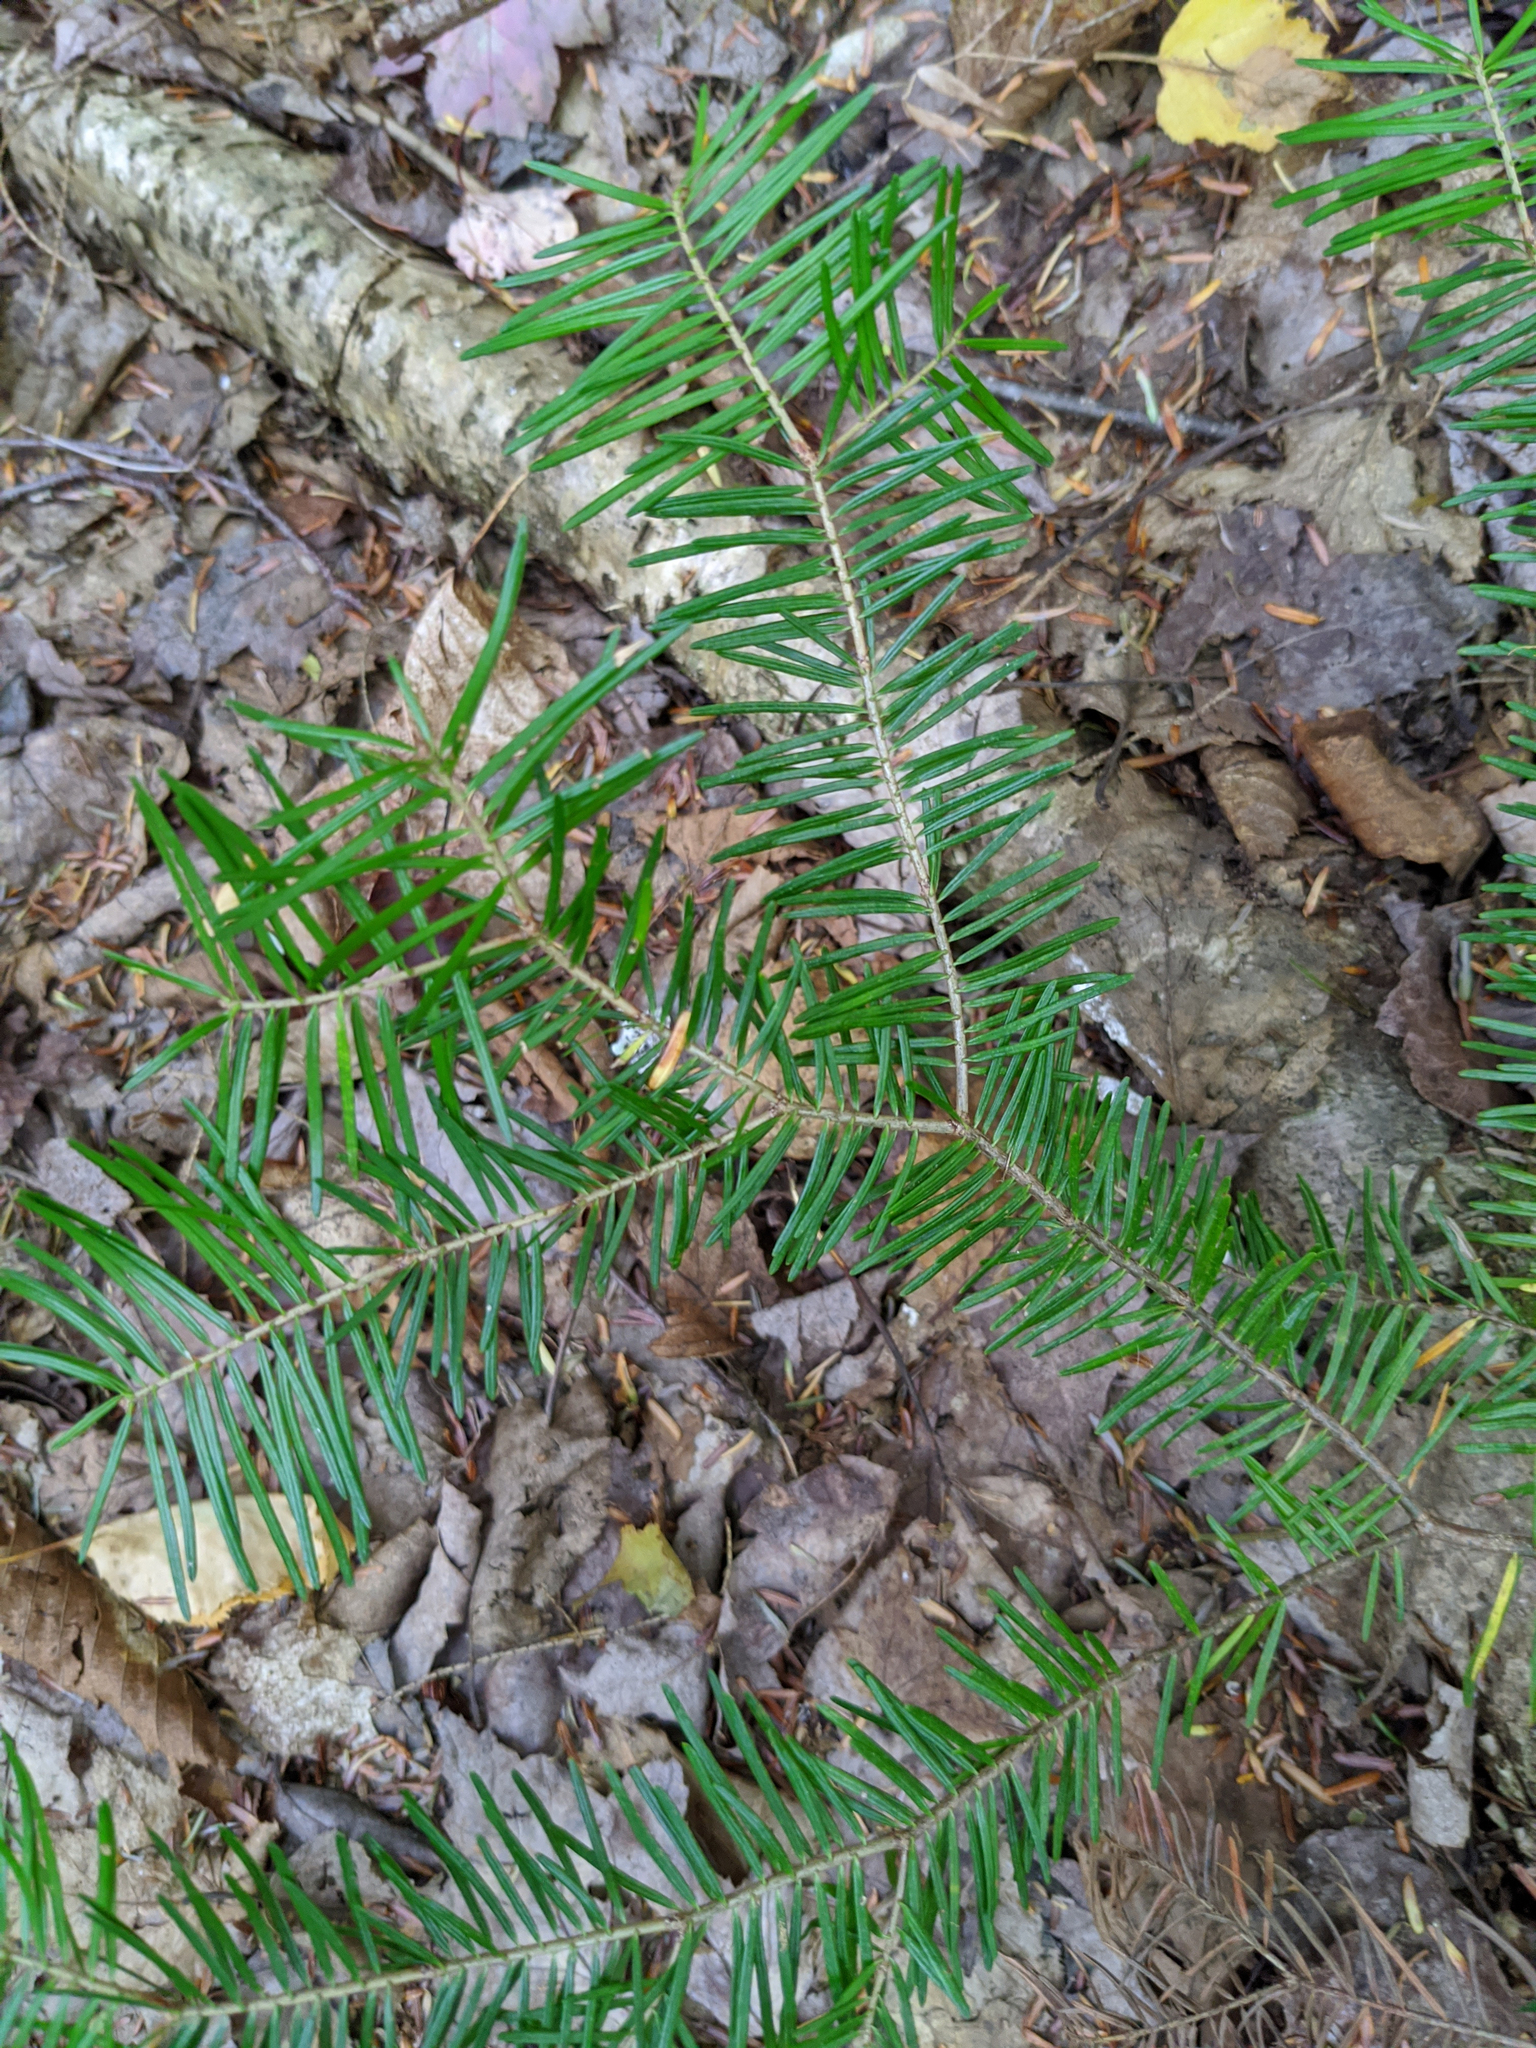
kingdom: Plantae
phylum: Tracheophyta
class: Pinopsida
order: Pinales
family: Pinaceae
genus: Abies
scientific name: Abies balsamea
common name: Balsam fir
